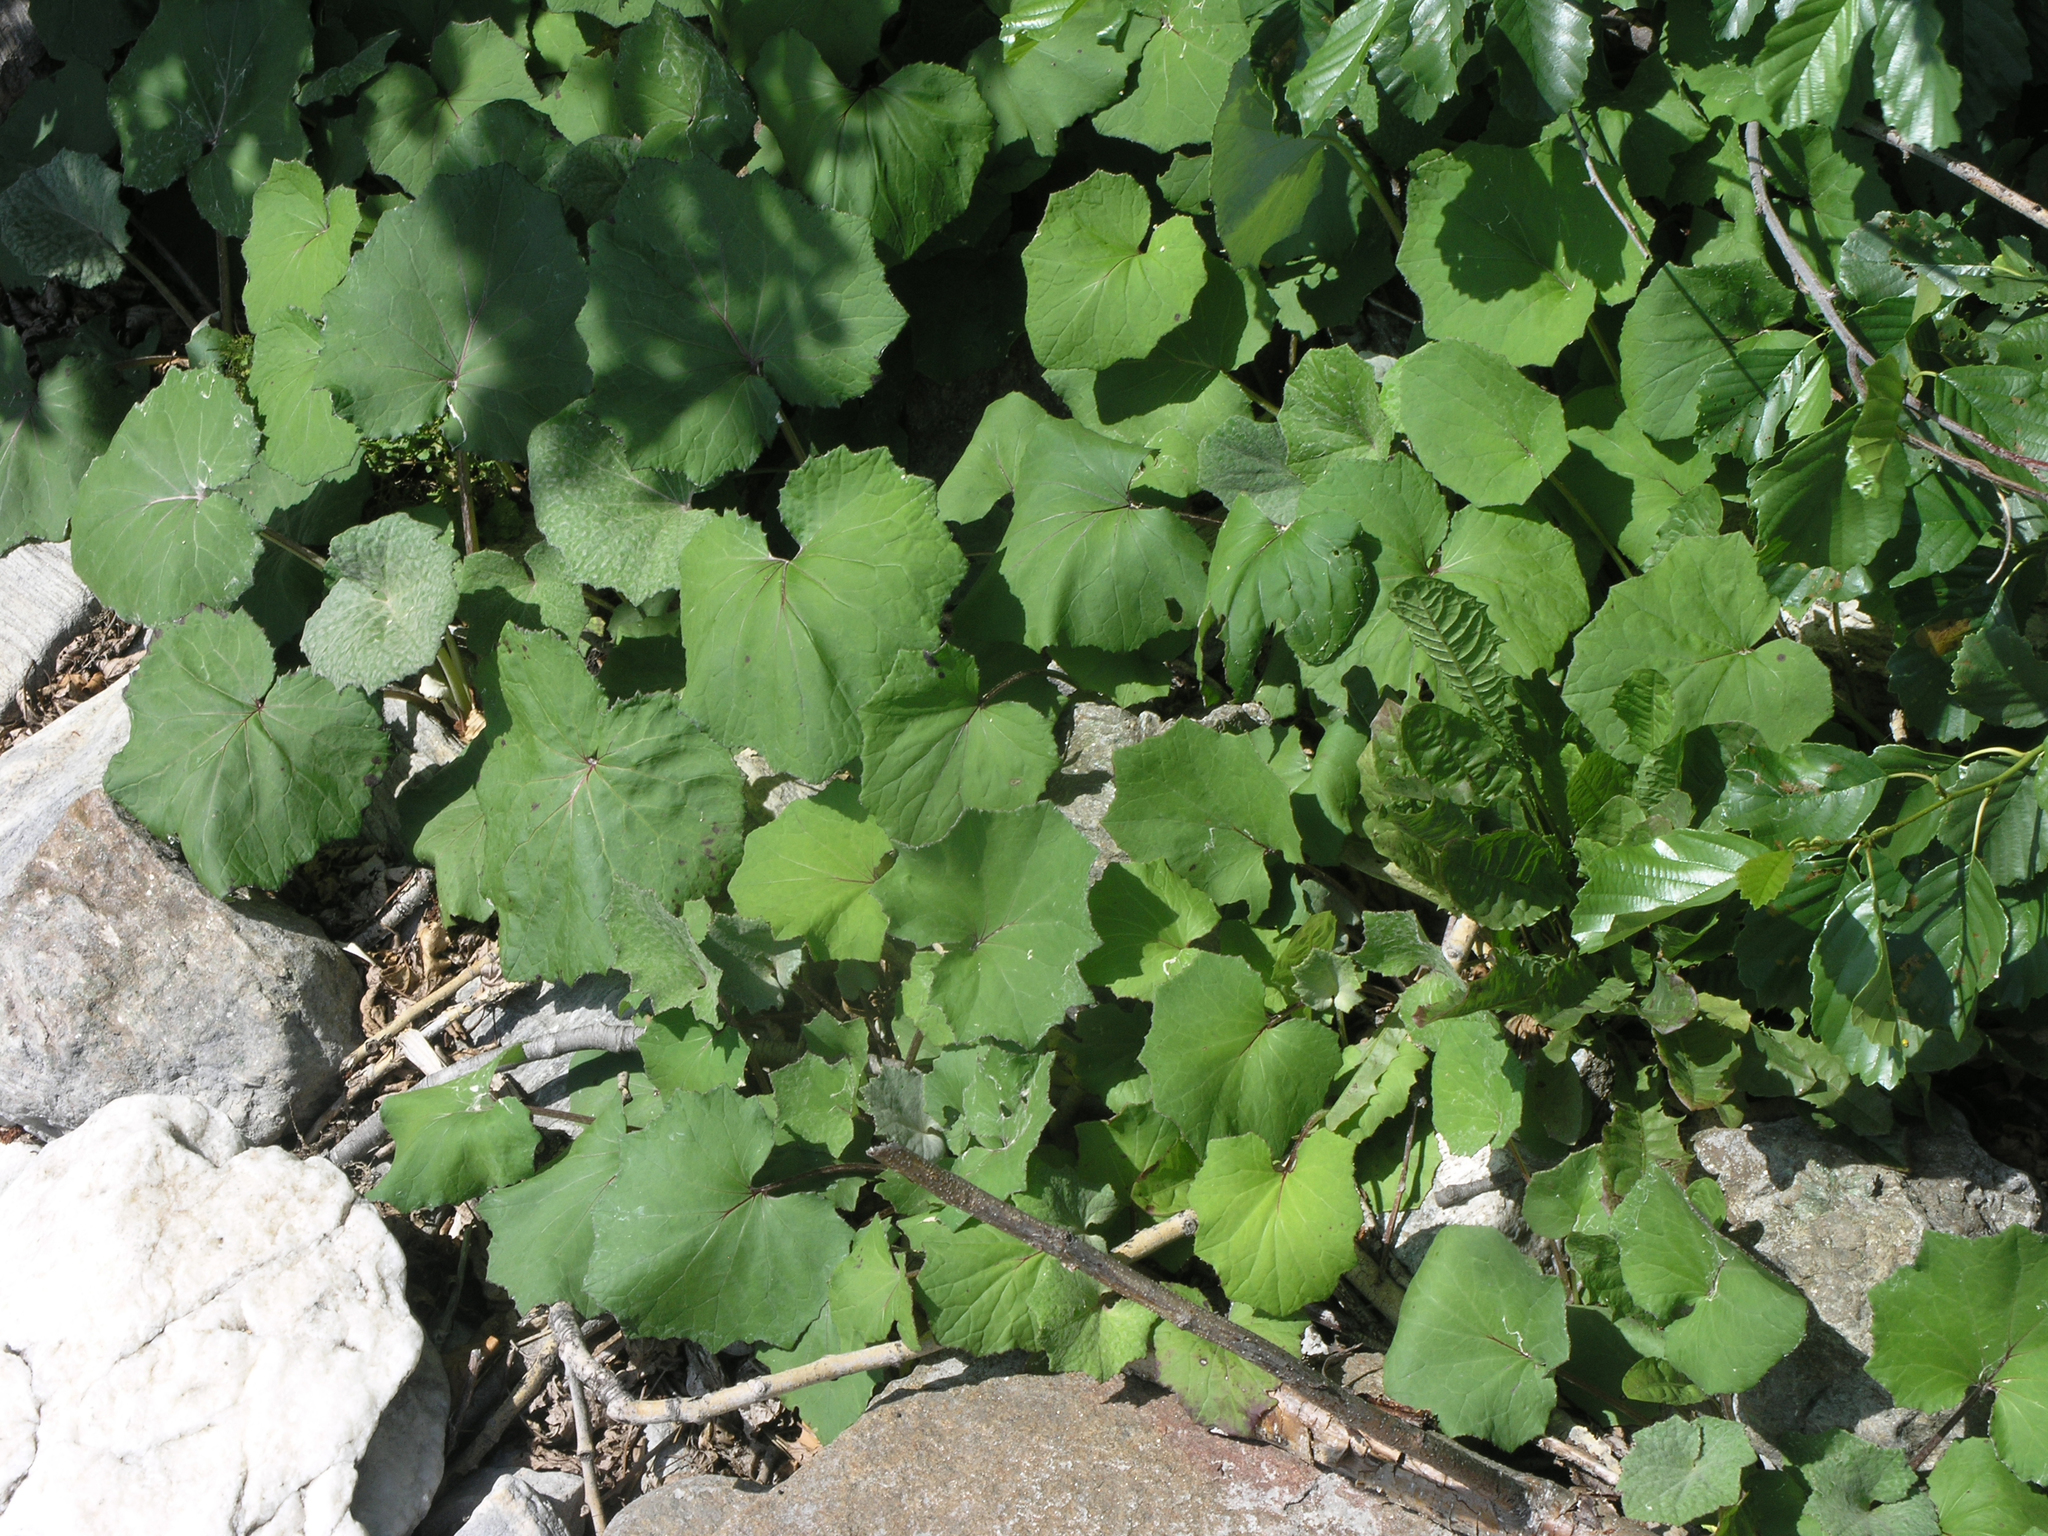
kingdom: Plantae
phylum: Tracheophyta
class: Magnoliopsida
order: Asterales
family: Asteraceae
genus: Tussilago
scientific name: Tussilago farfara
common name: Coltsfoot
